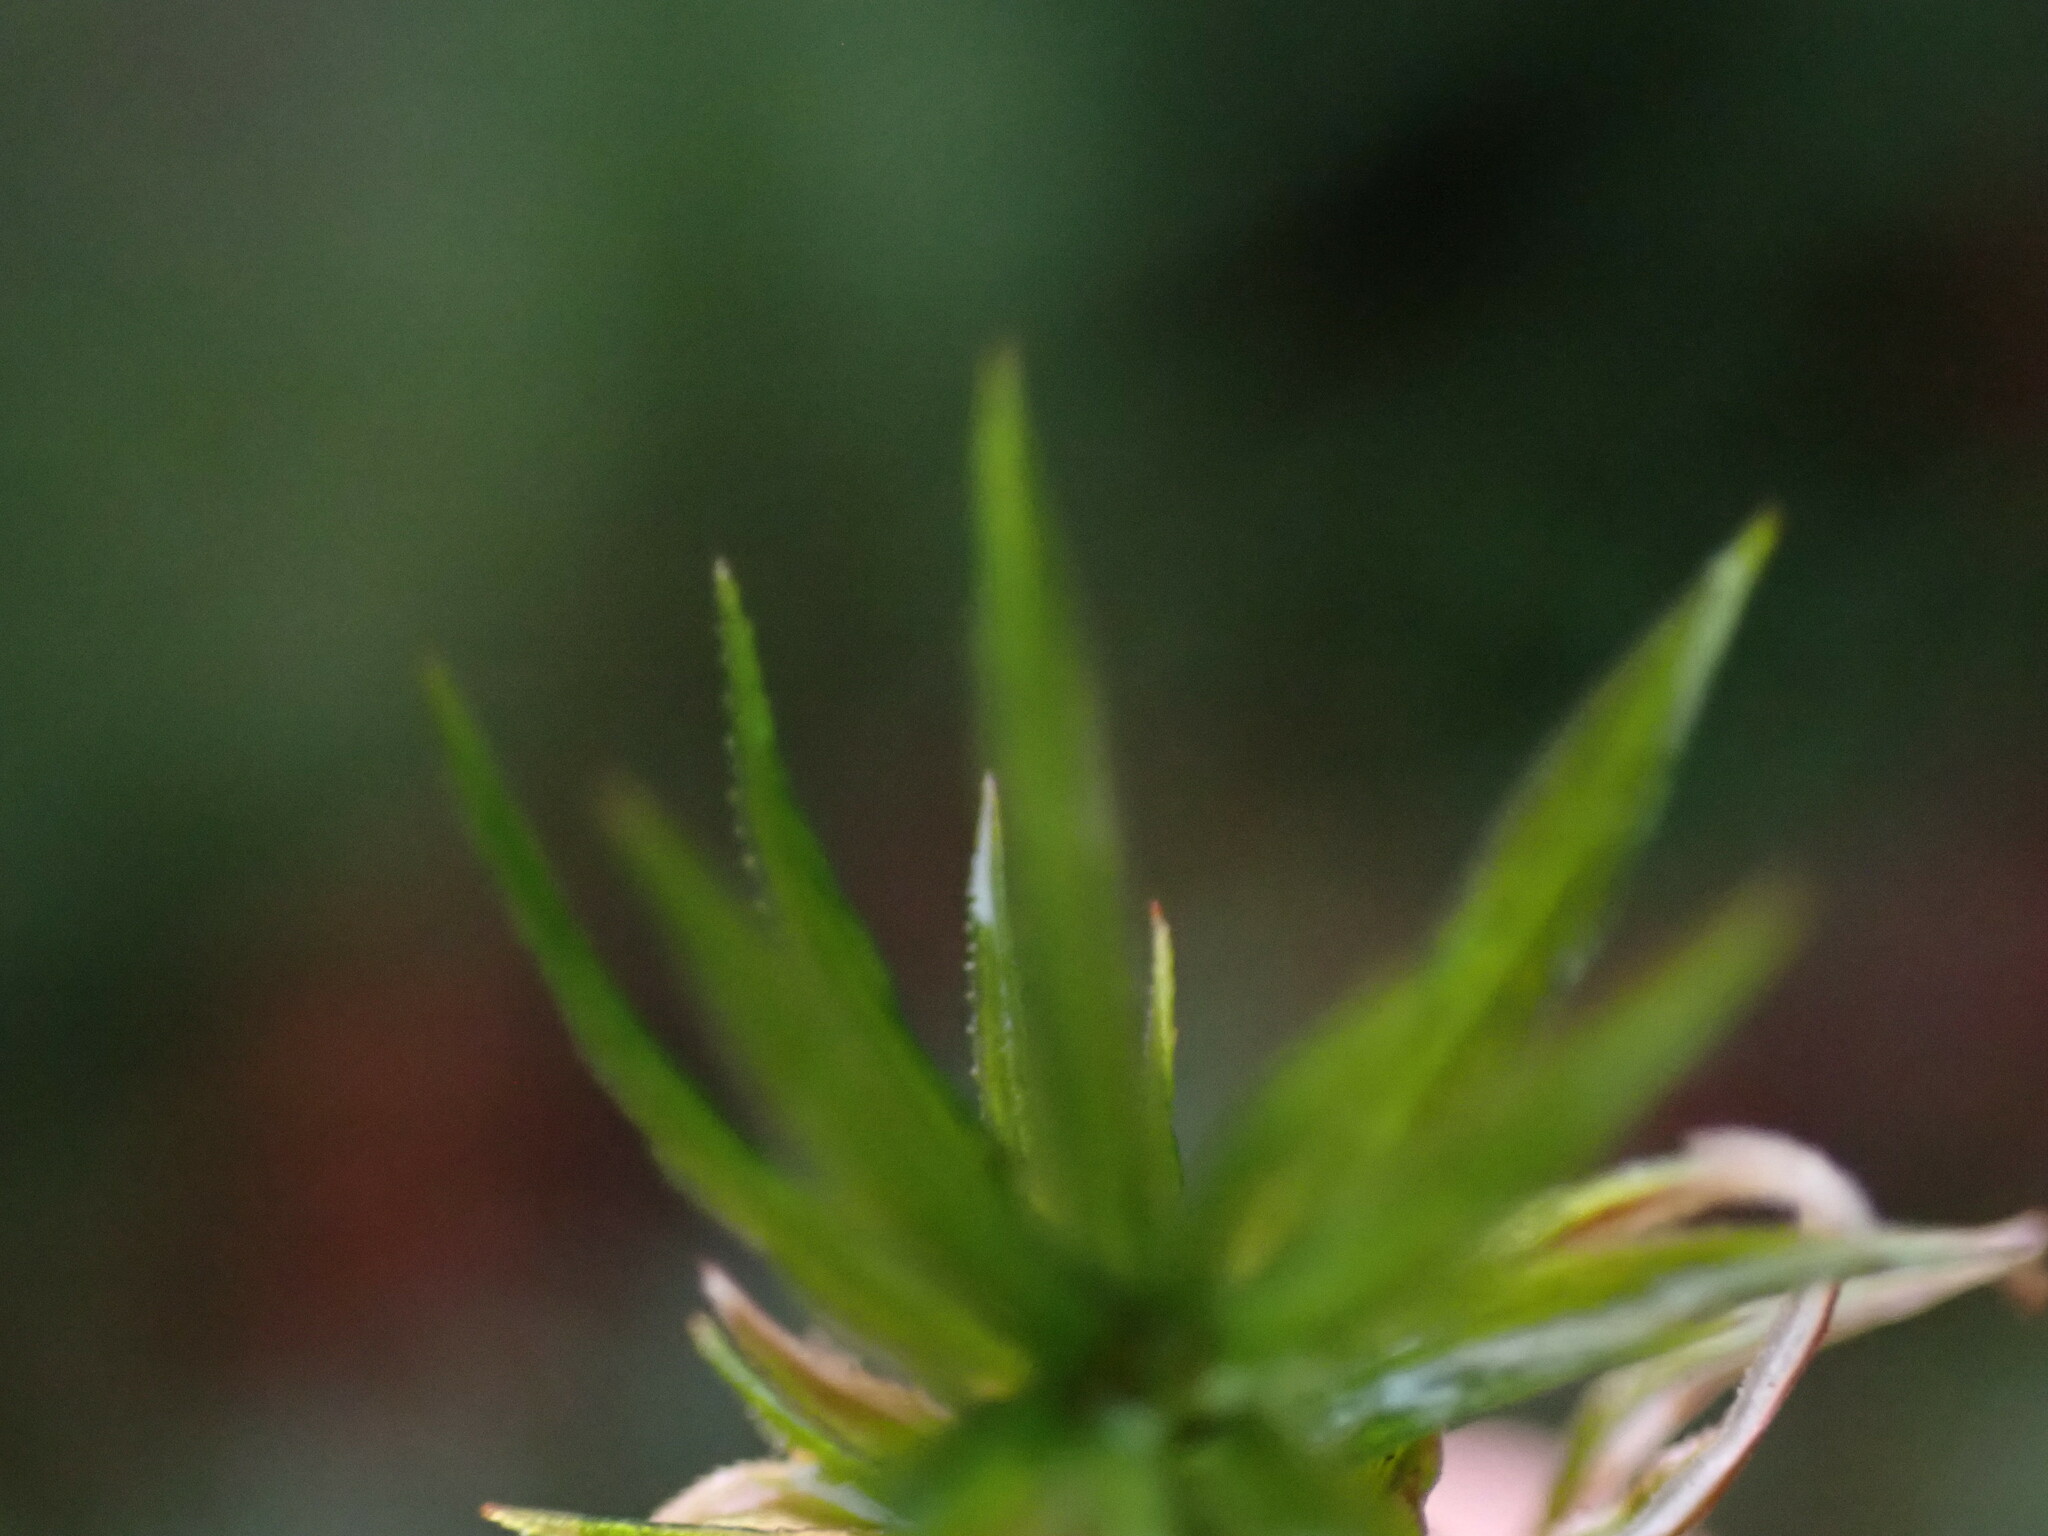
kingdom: Plantae
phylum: Bryophyta
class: Polytrichopsida
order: Polytrichales
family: Polytrichaceae
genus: Pogonatum
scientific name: Pogonatum contortum
